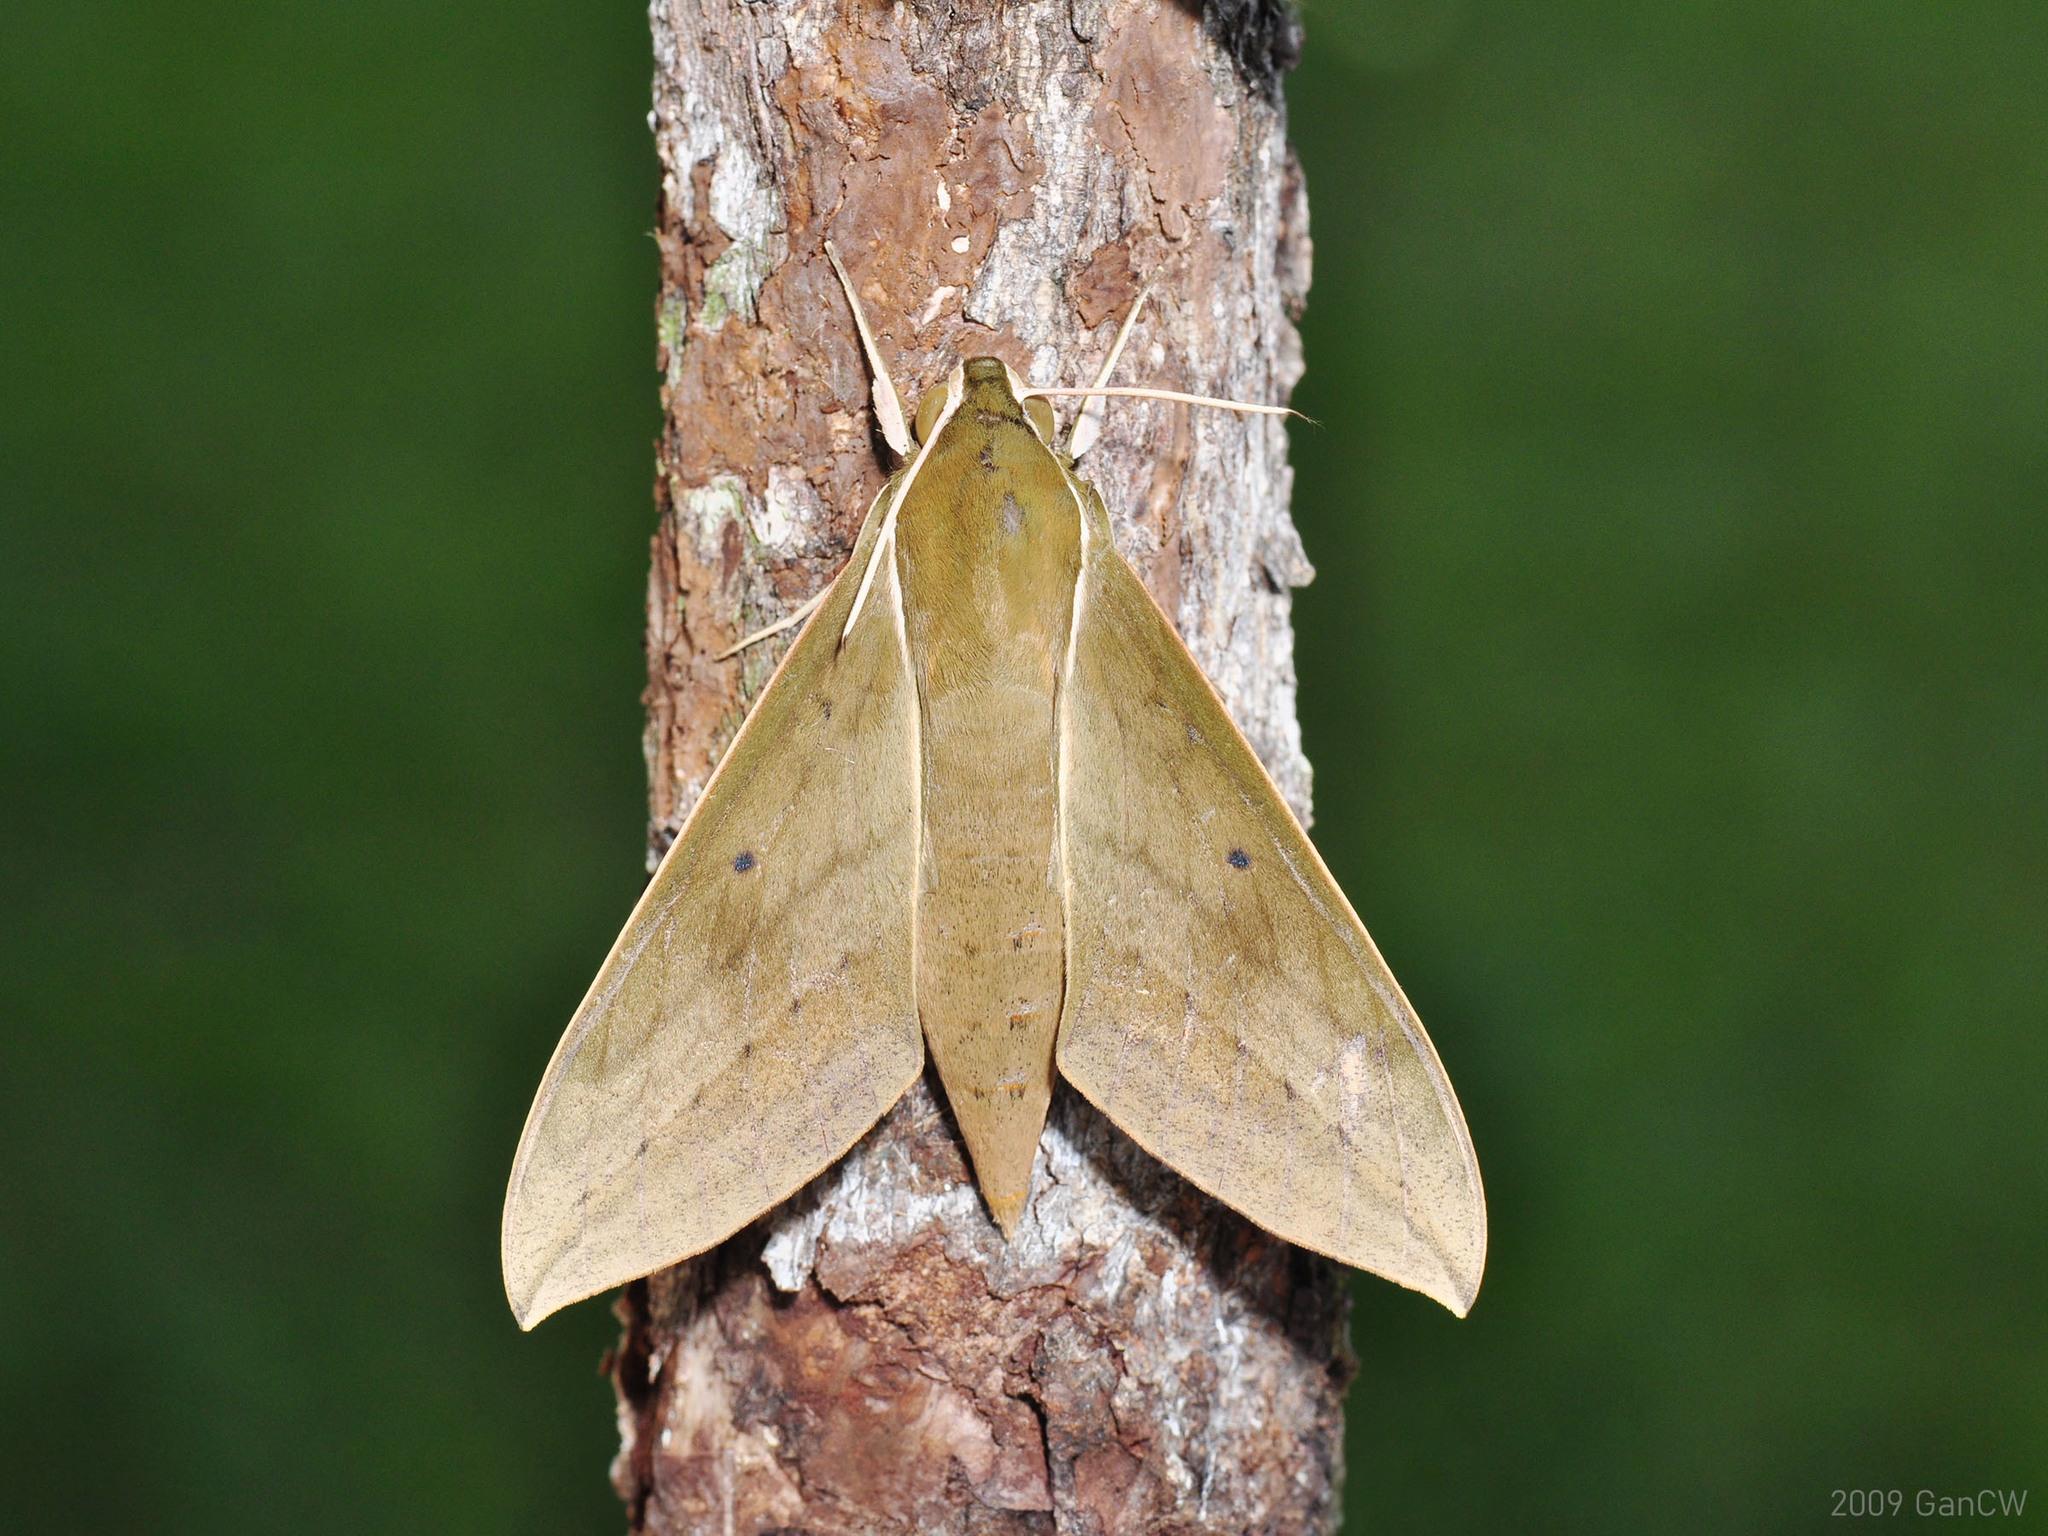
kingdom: Animalia
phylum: Arthropoda
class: Insecta
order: Lepidoptera
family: Sphingidae
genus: Theretra
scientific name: Theretra boisduvalii
